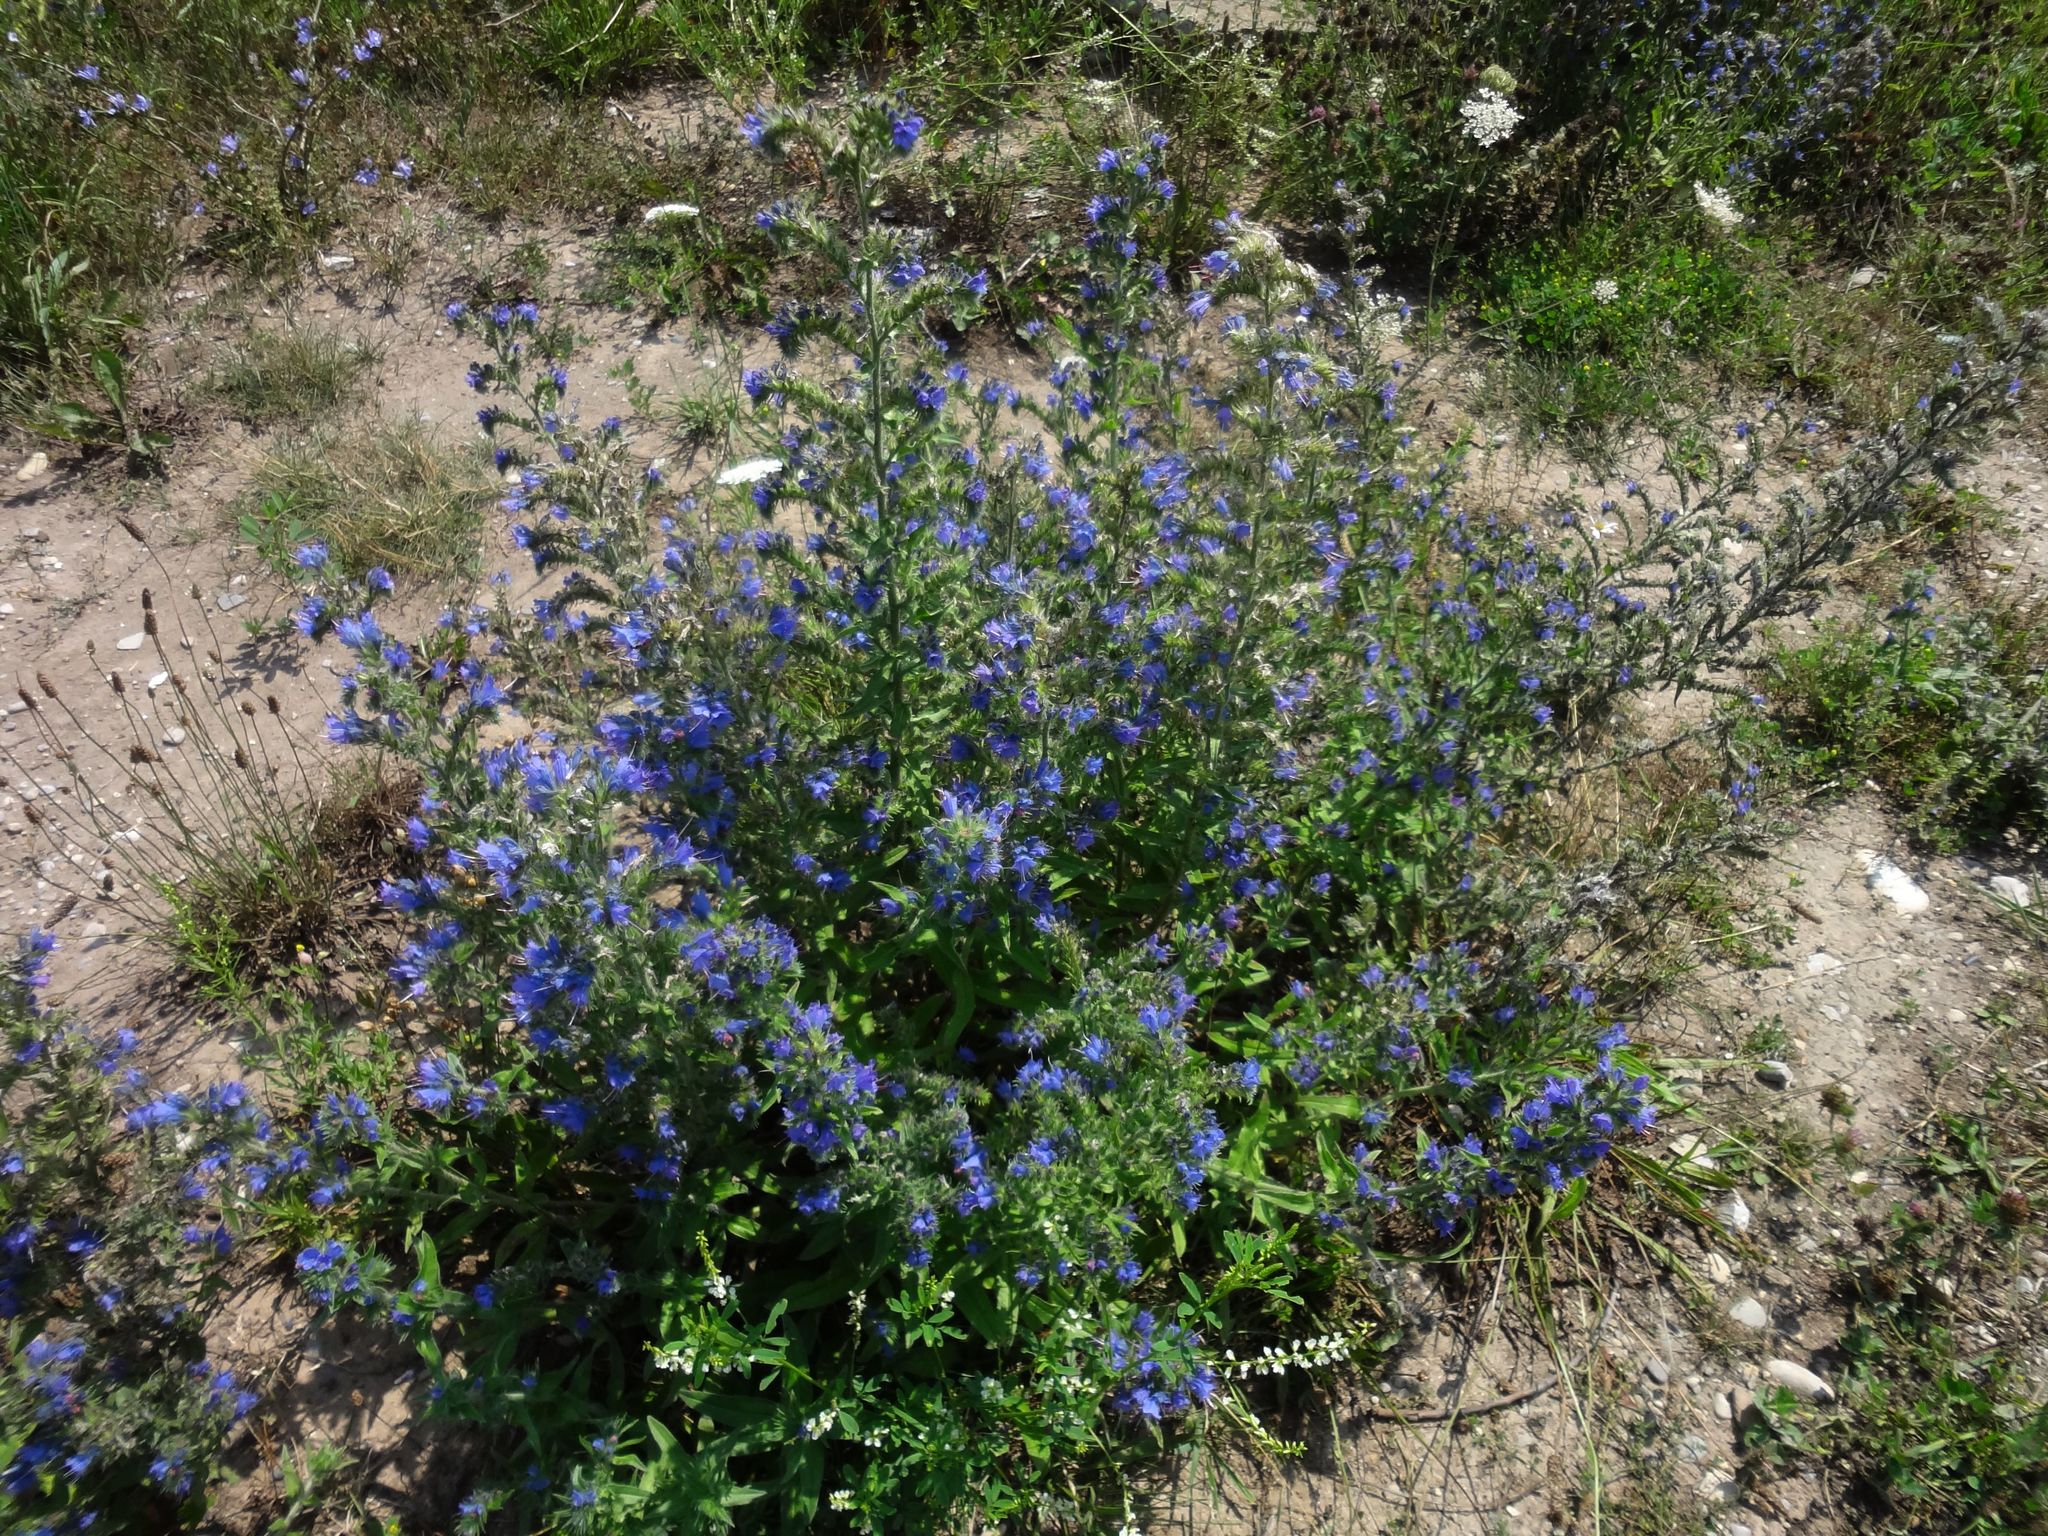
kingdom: Plantae
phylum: Tracheophyta
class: Magnoliopsida
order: Boraginales
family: Boraginaceae
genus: Echium
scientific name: Echium vulgare
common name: Common viper's bugloss
